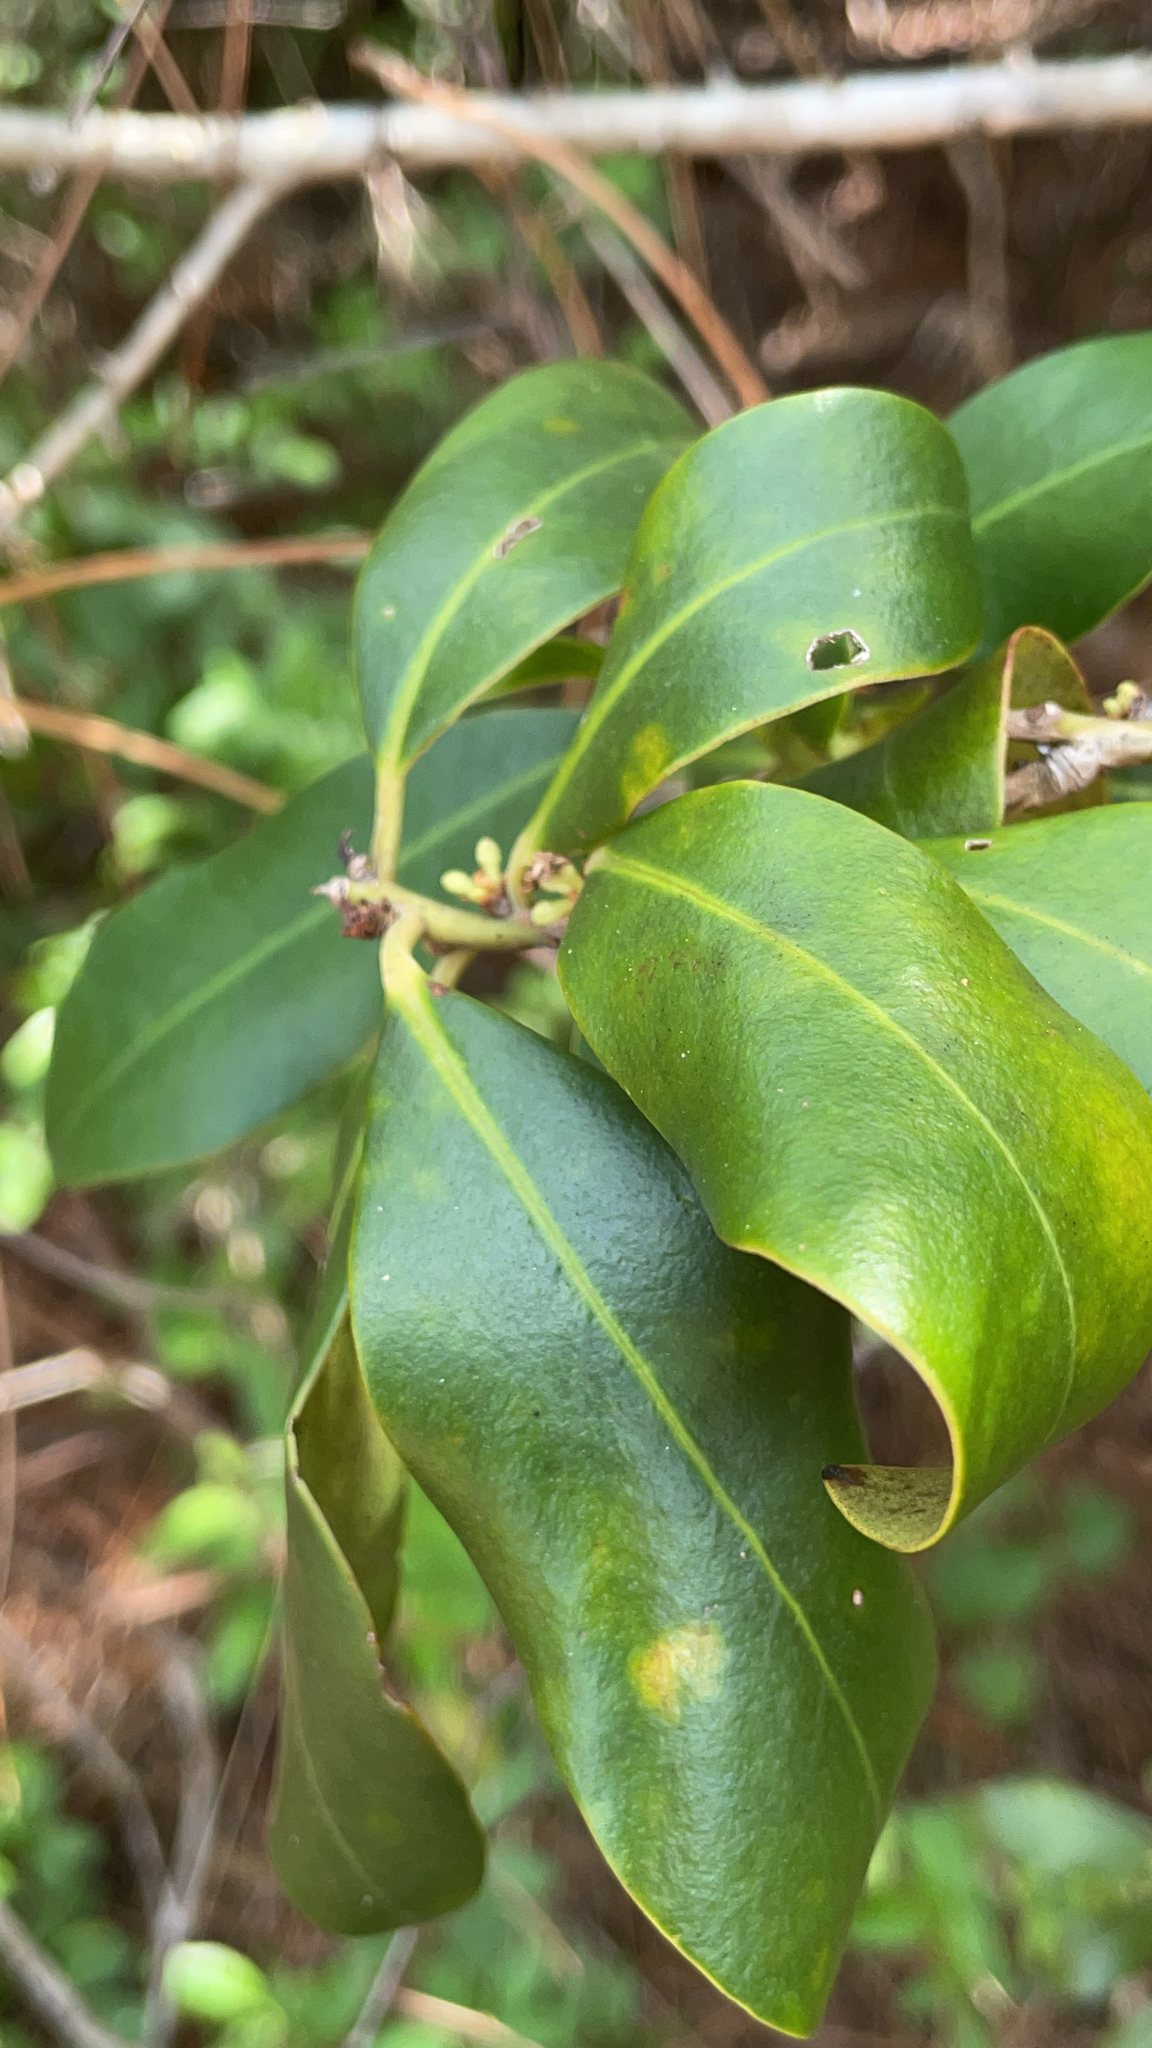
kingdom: Plantae
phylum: Tracheophyta
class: Magnoliopsida
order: Ericales
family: Primulaceae
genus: Myrsine
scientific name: Myrsine floridana
